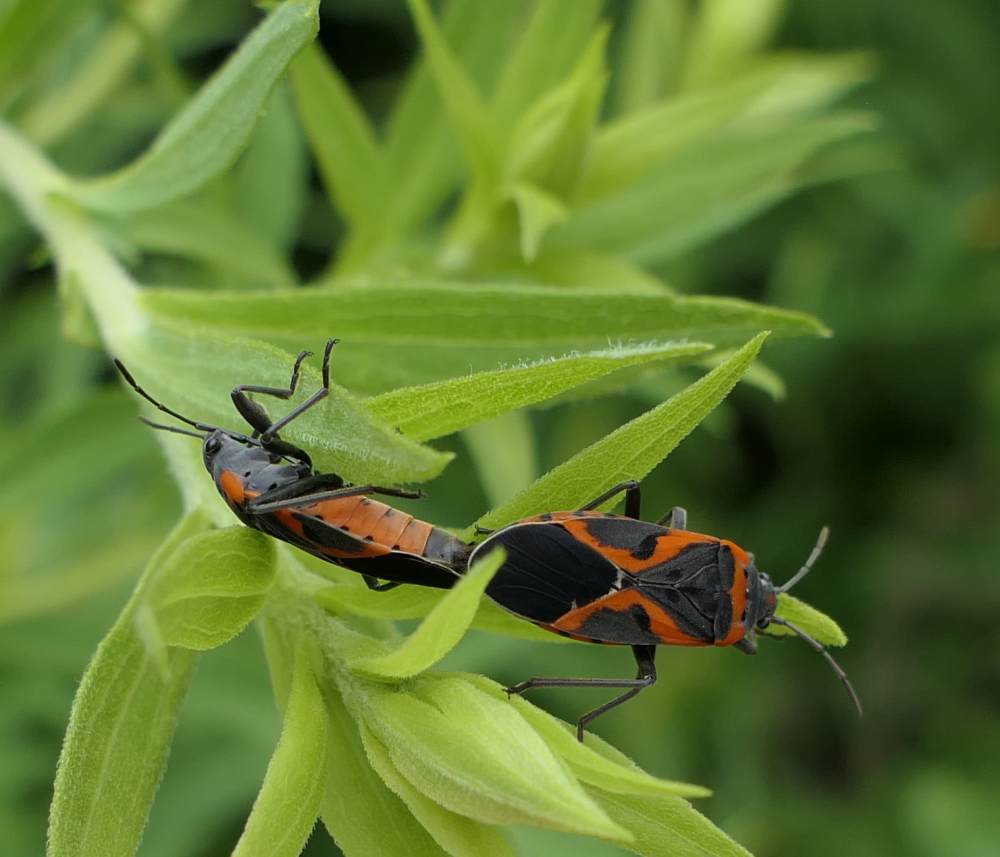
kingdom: Animalia
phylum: Arthropoda
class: Insecta
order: Hemiptera
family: Lygaeidae
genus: Lygaeus
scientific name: Lygaeus kalmii
